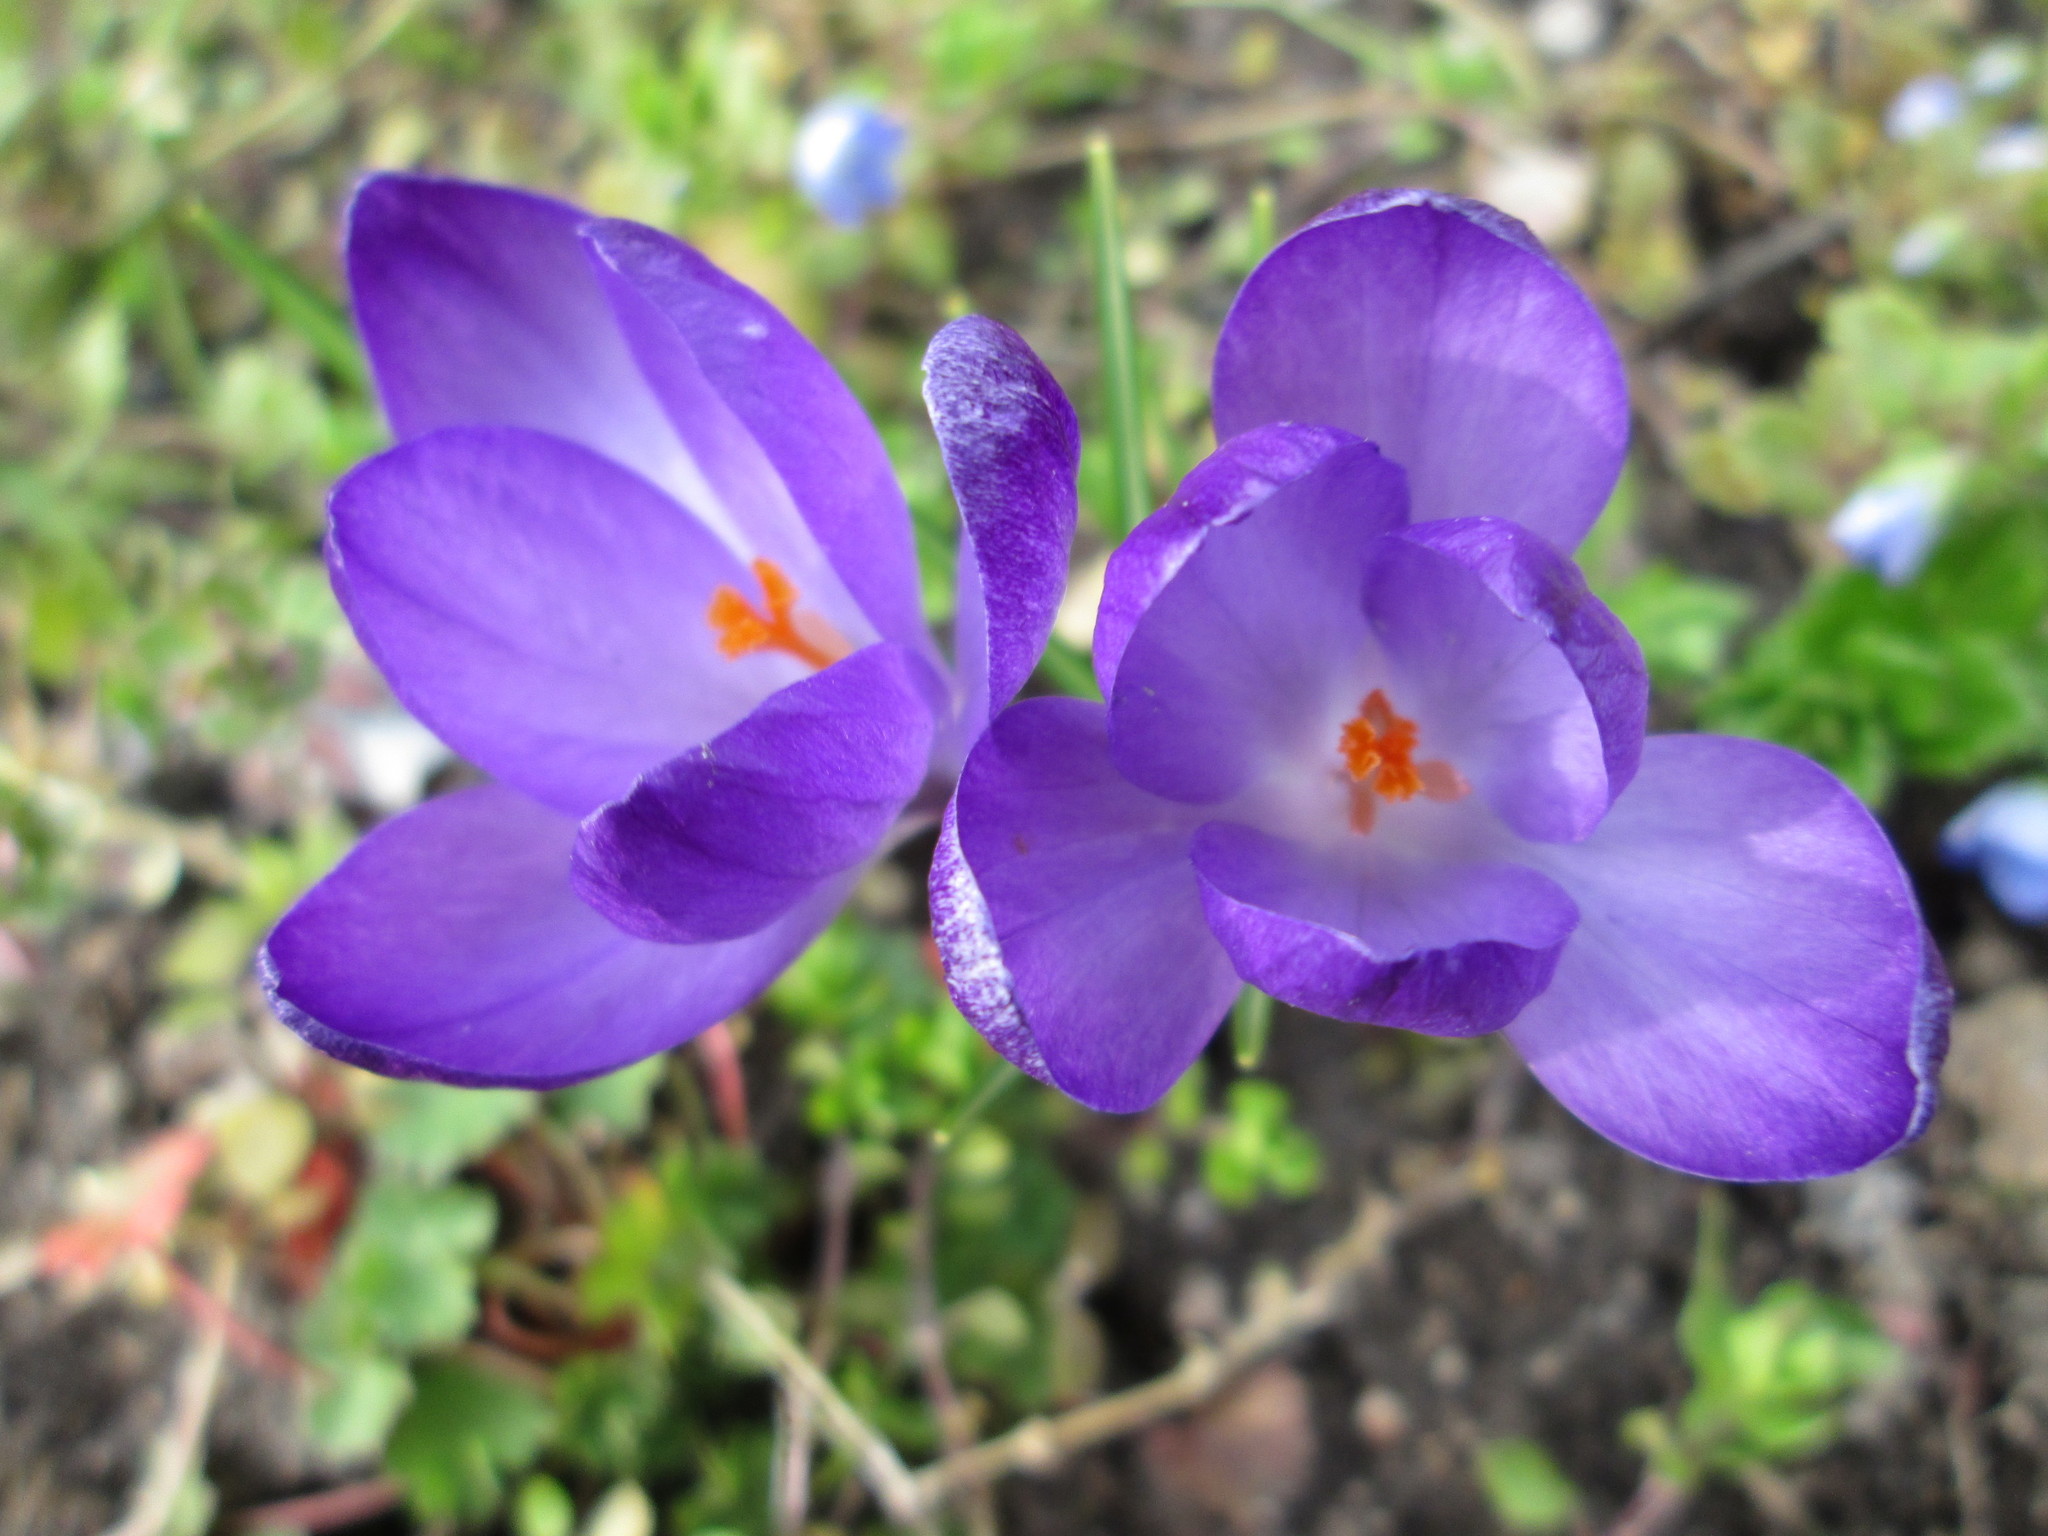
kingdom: Plantae
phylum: Tracheophyta
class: Liliopsida
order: Asparagales
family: Iridaceae
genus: Crocus
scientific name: Crocus tommasinianus
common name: Early crocus
